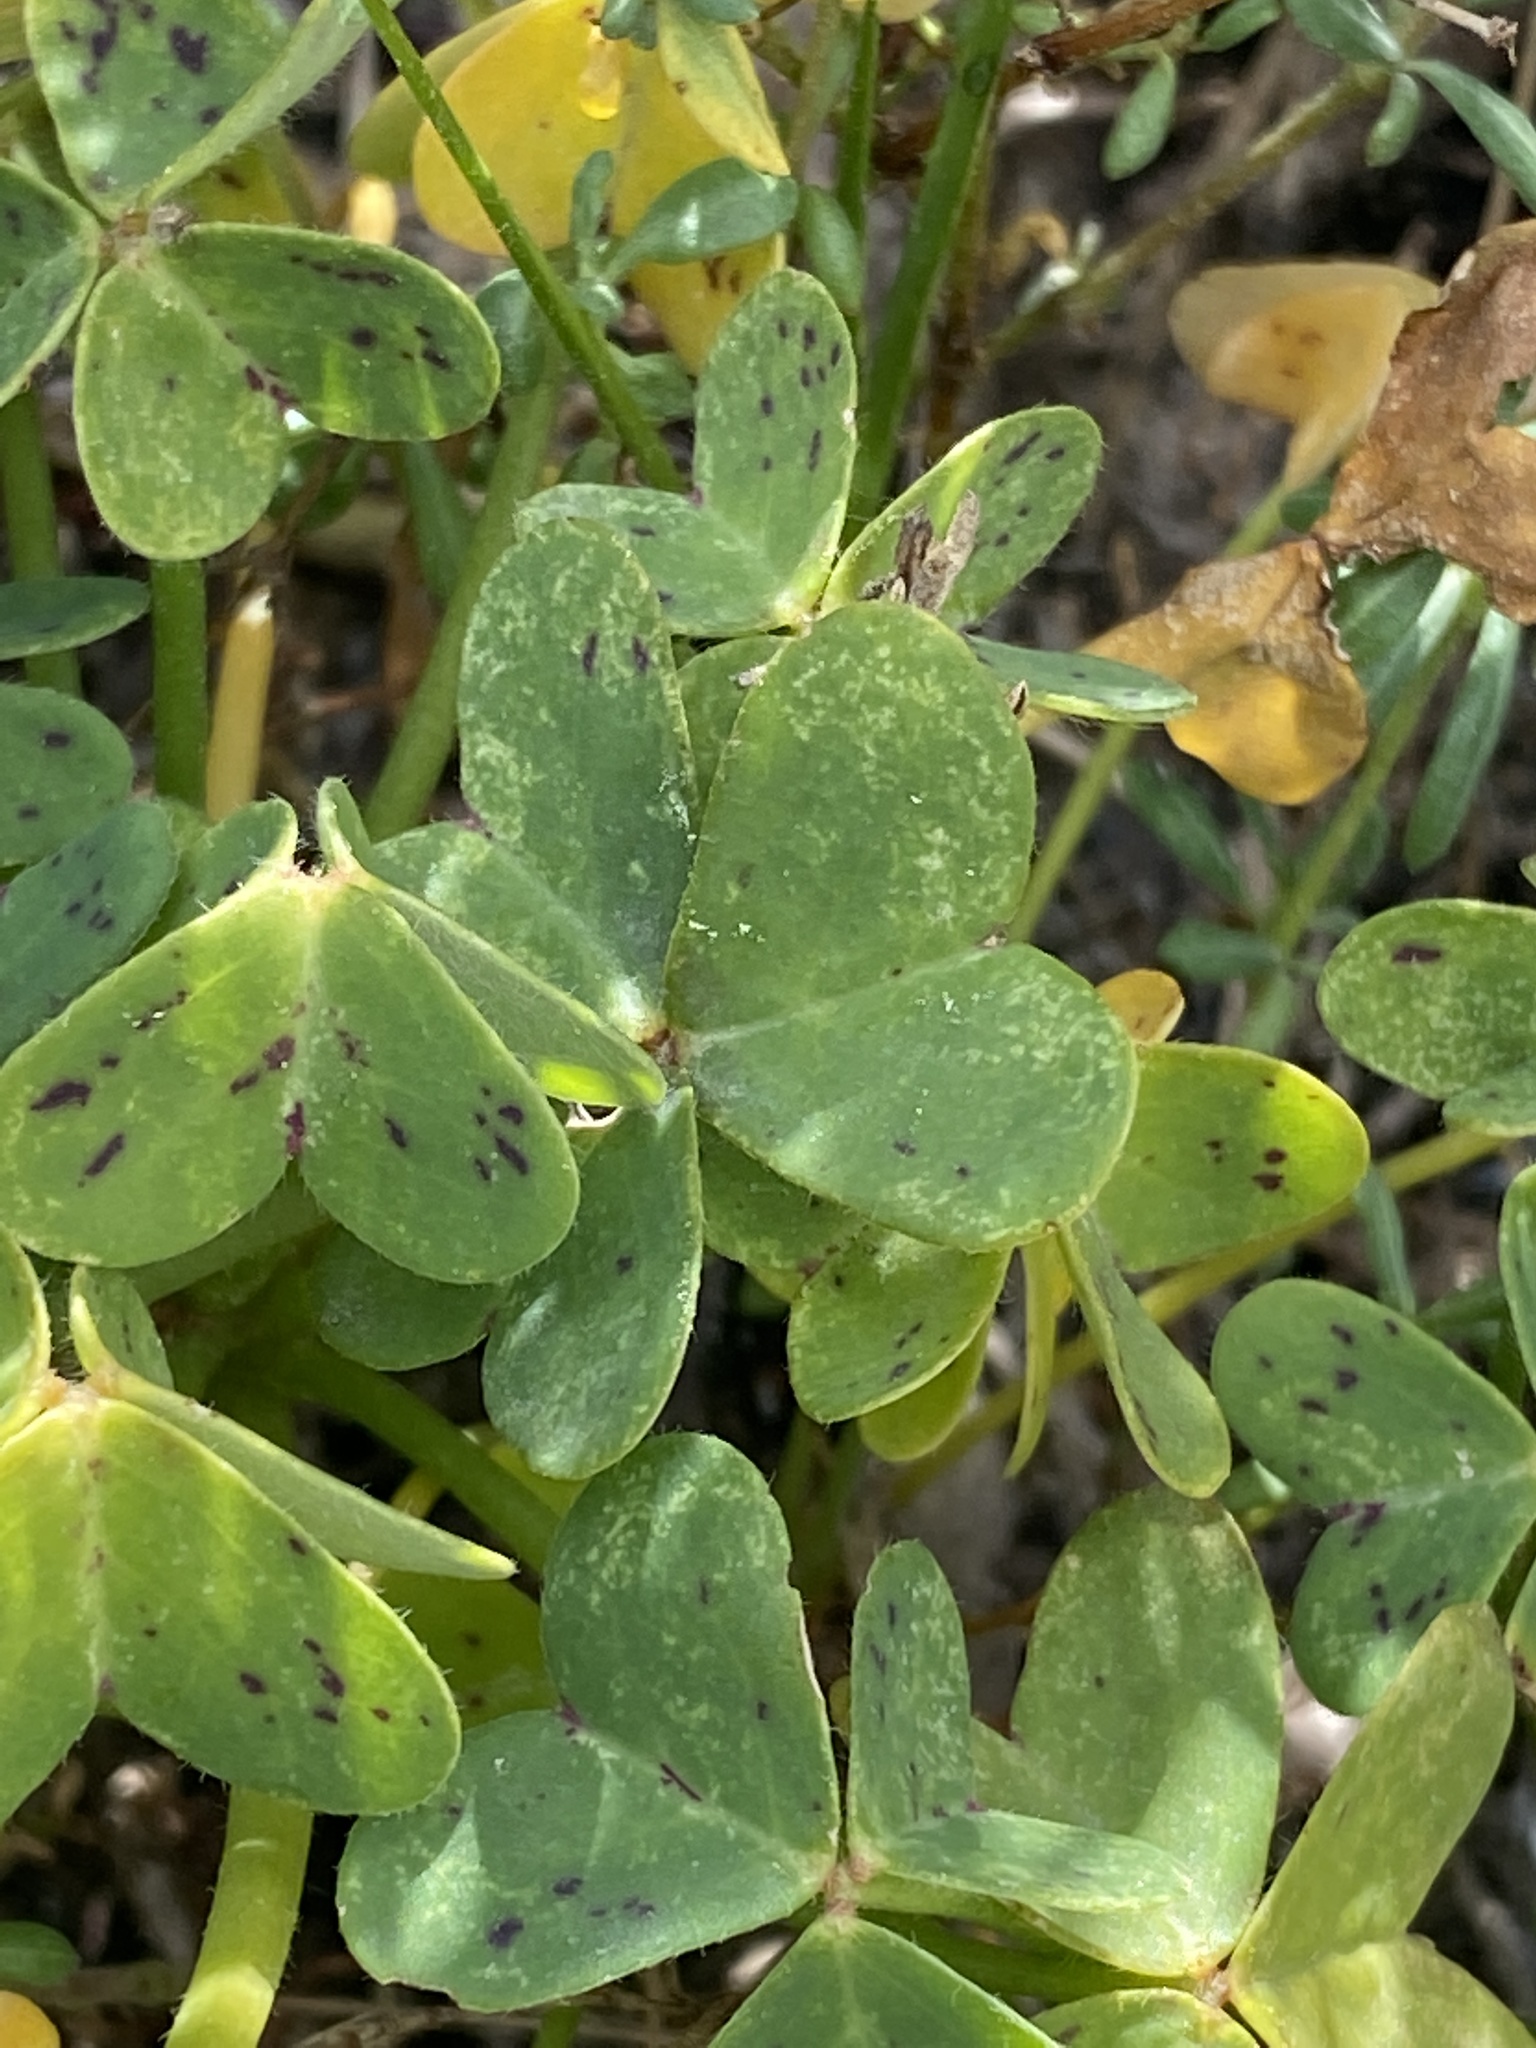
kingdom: Plantae
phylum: Tracheophyta
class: Magnoliopsida
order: Oxalidales
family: Oxalidaceae
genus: Oxalis
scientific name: Oxalis pes-caprae
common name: Bermuda-buttercup
